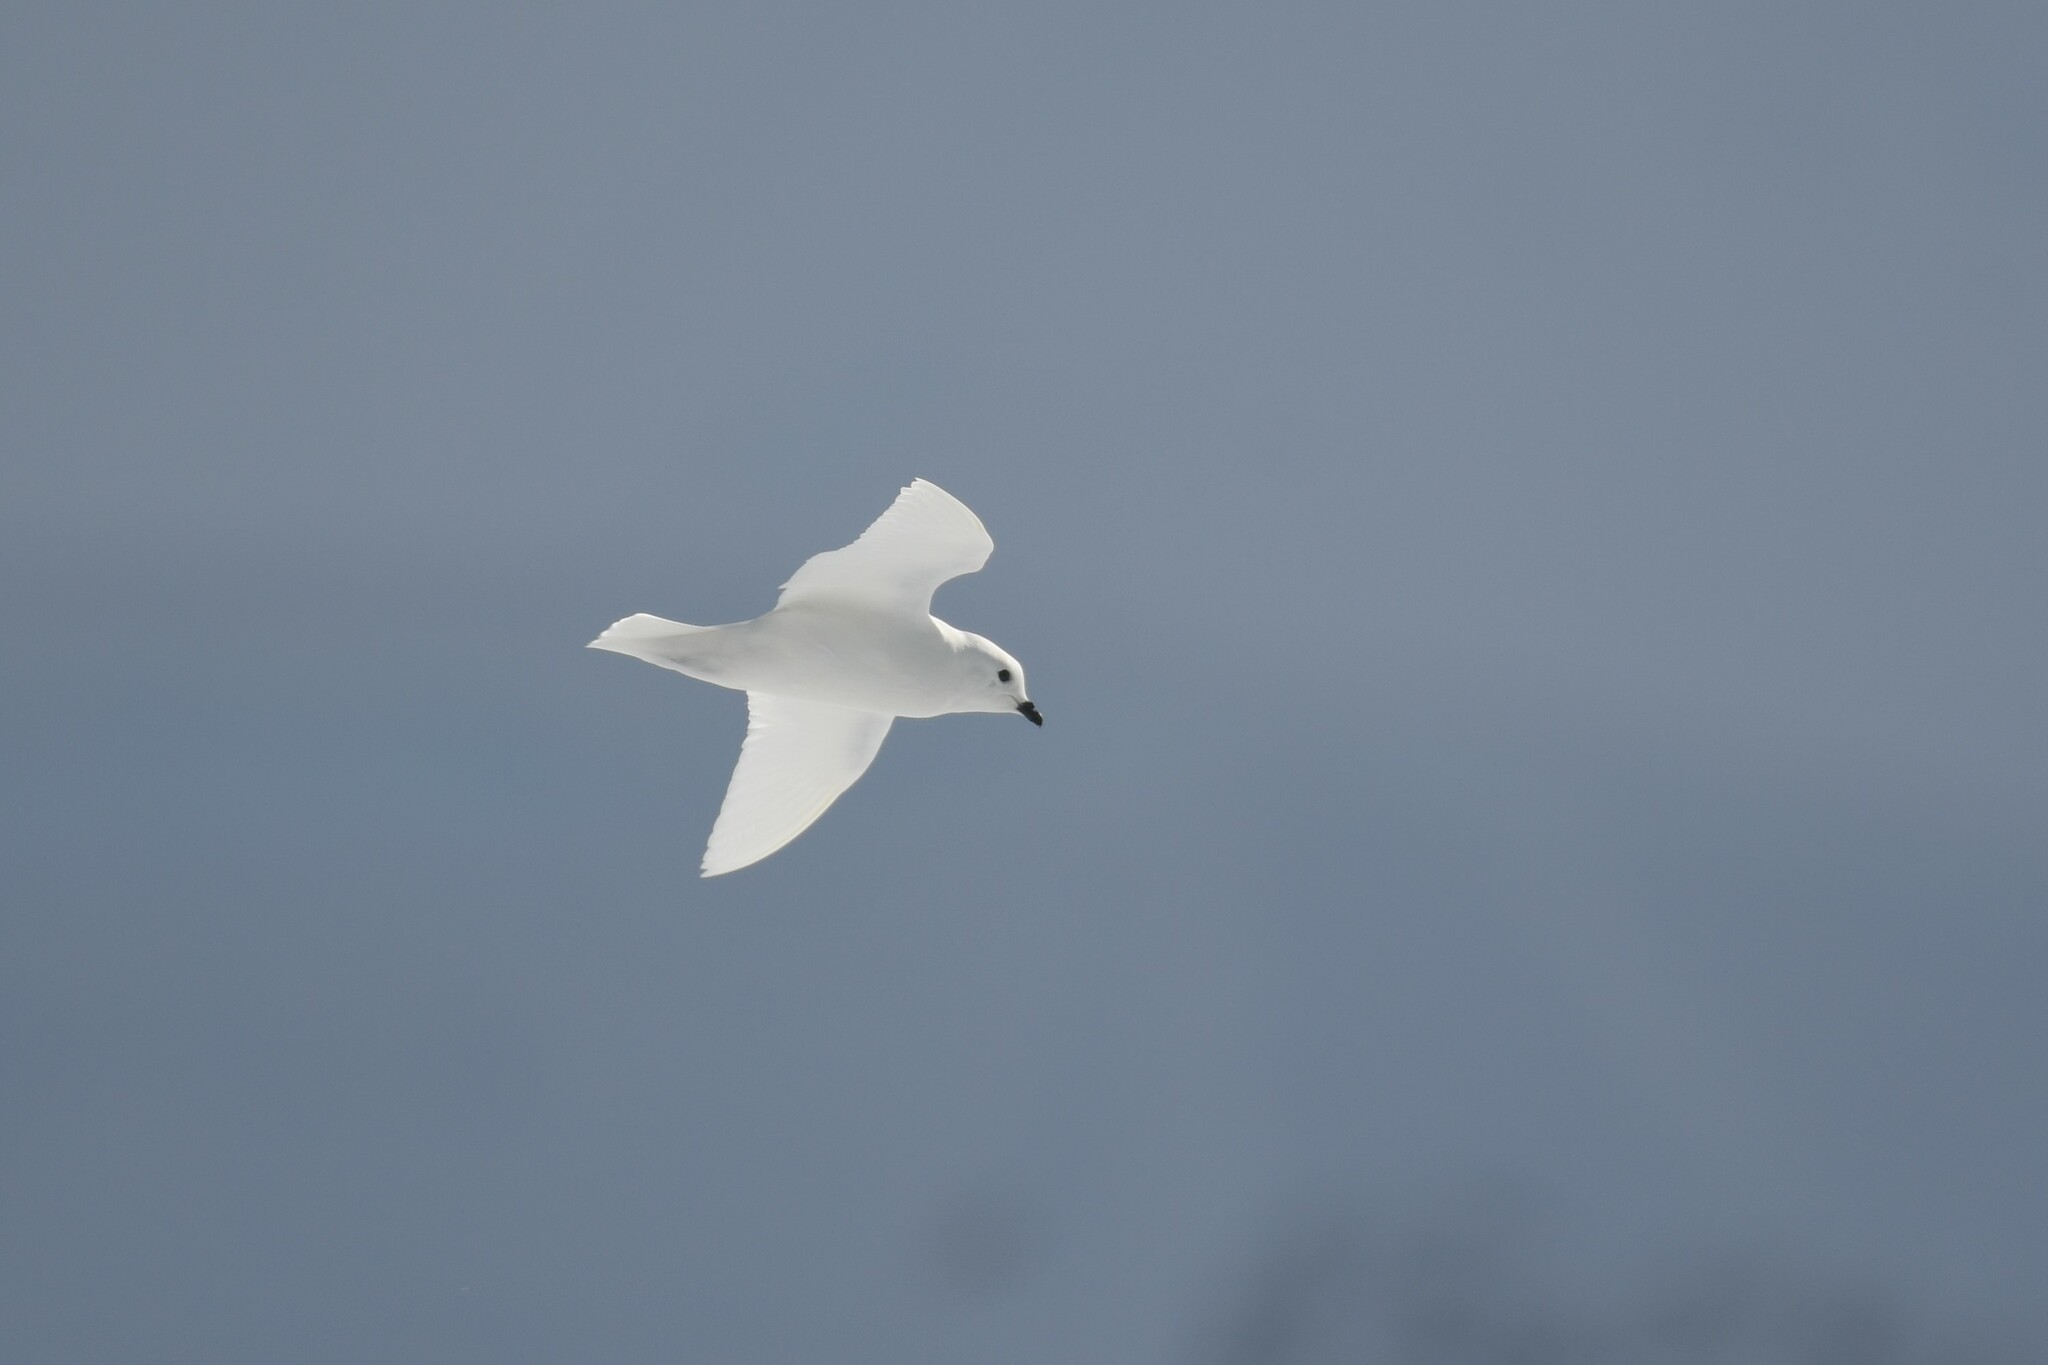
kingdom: Animalia
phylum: Chordata
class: Aves
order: Procellariiformes
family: Procellariidae
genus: Pagodroma
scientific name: Pagodroma nivea
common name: Snow petrel
